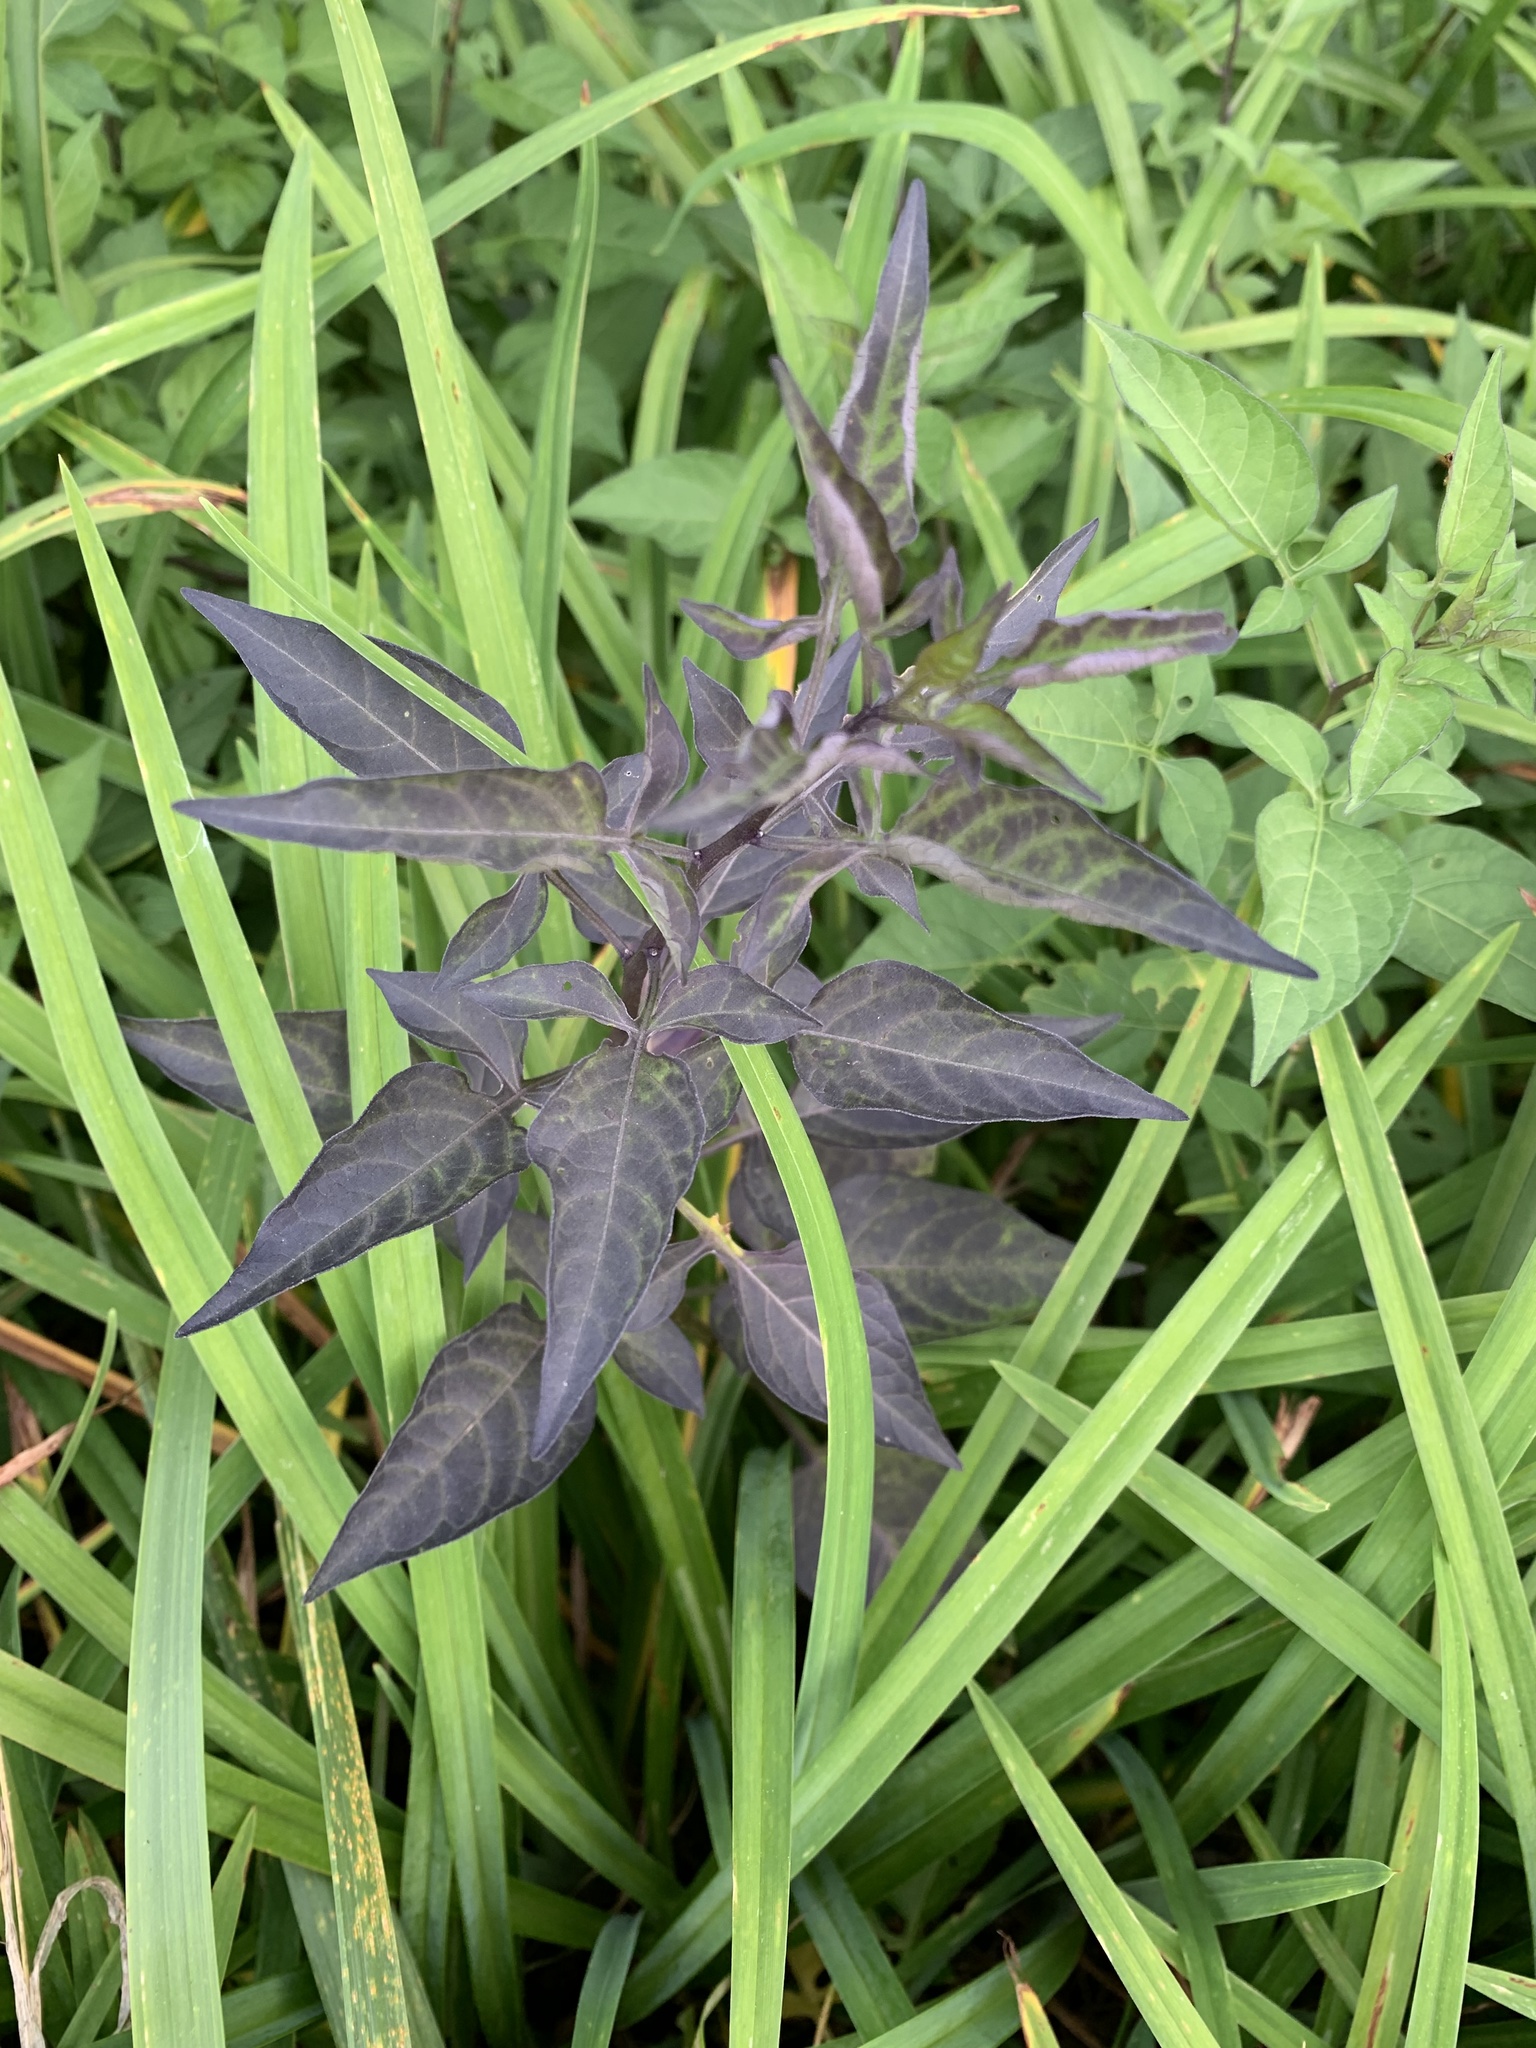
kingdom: Plantae
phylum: Tracheophyta
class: Magnoliopsida
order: Solanales
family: Solanaceae
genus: Solanum
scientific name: Solanum dulcamara
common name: Climbing nightshade
